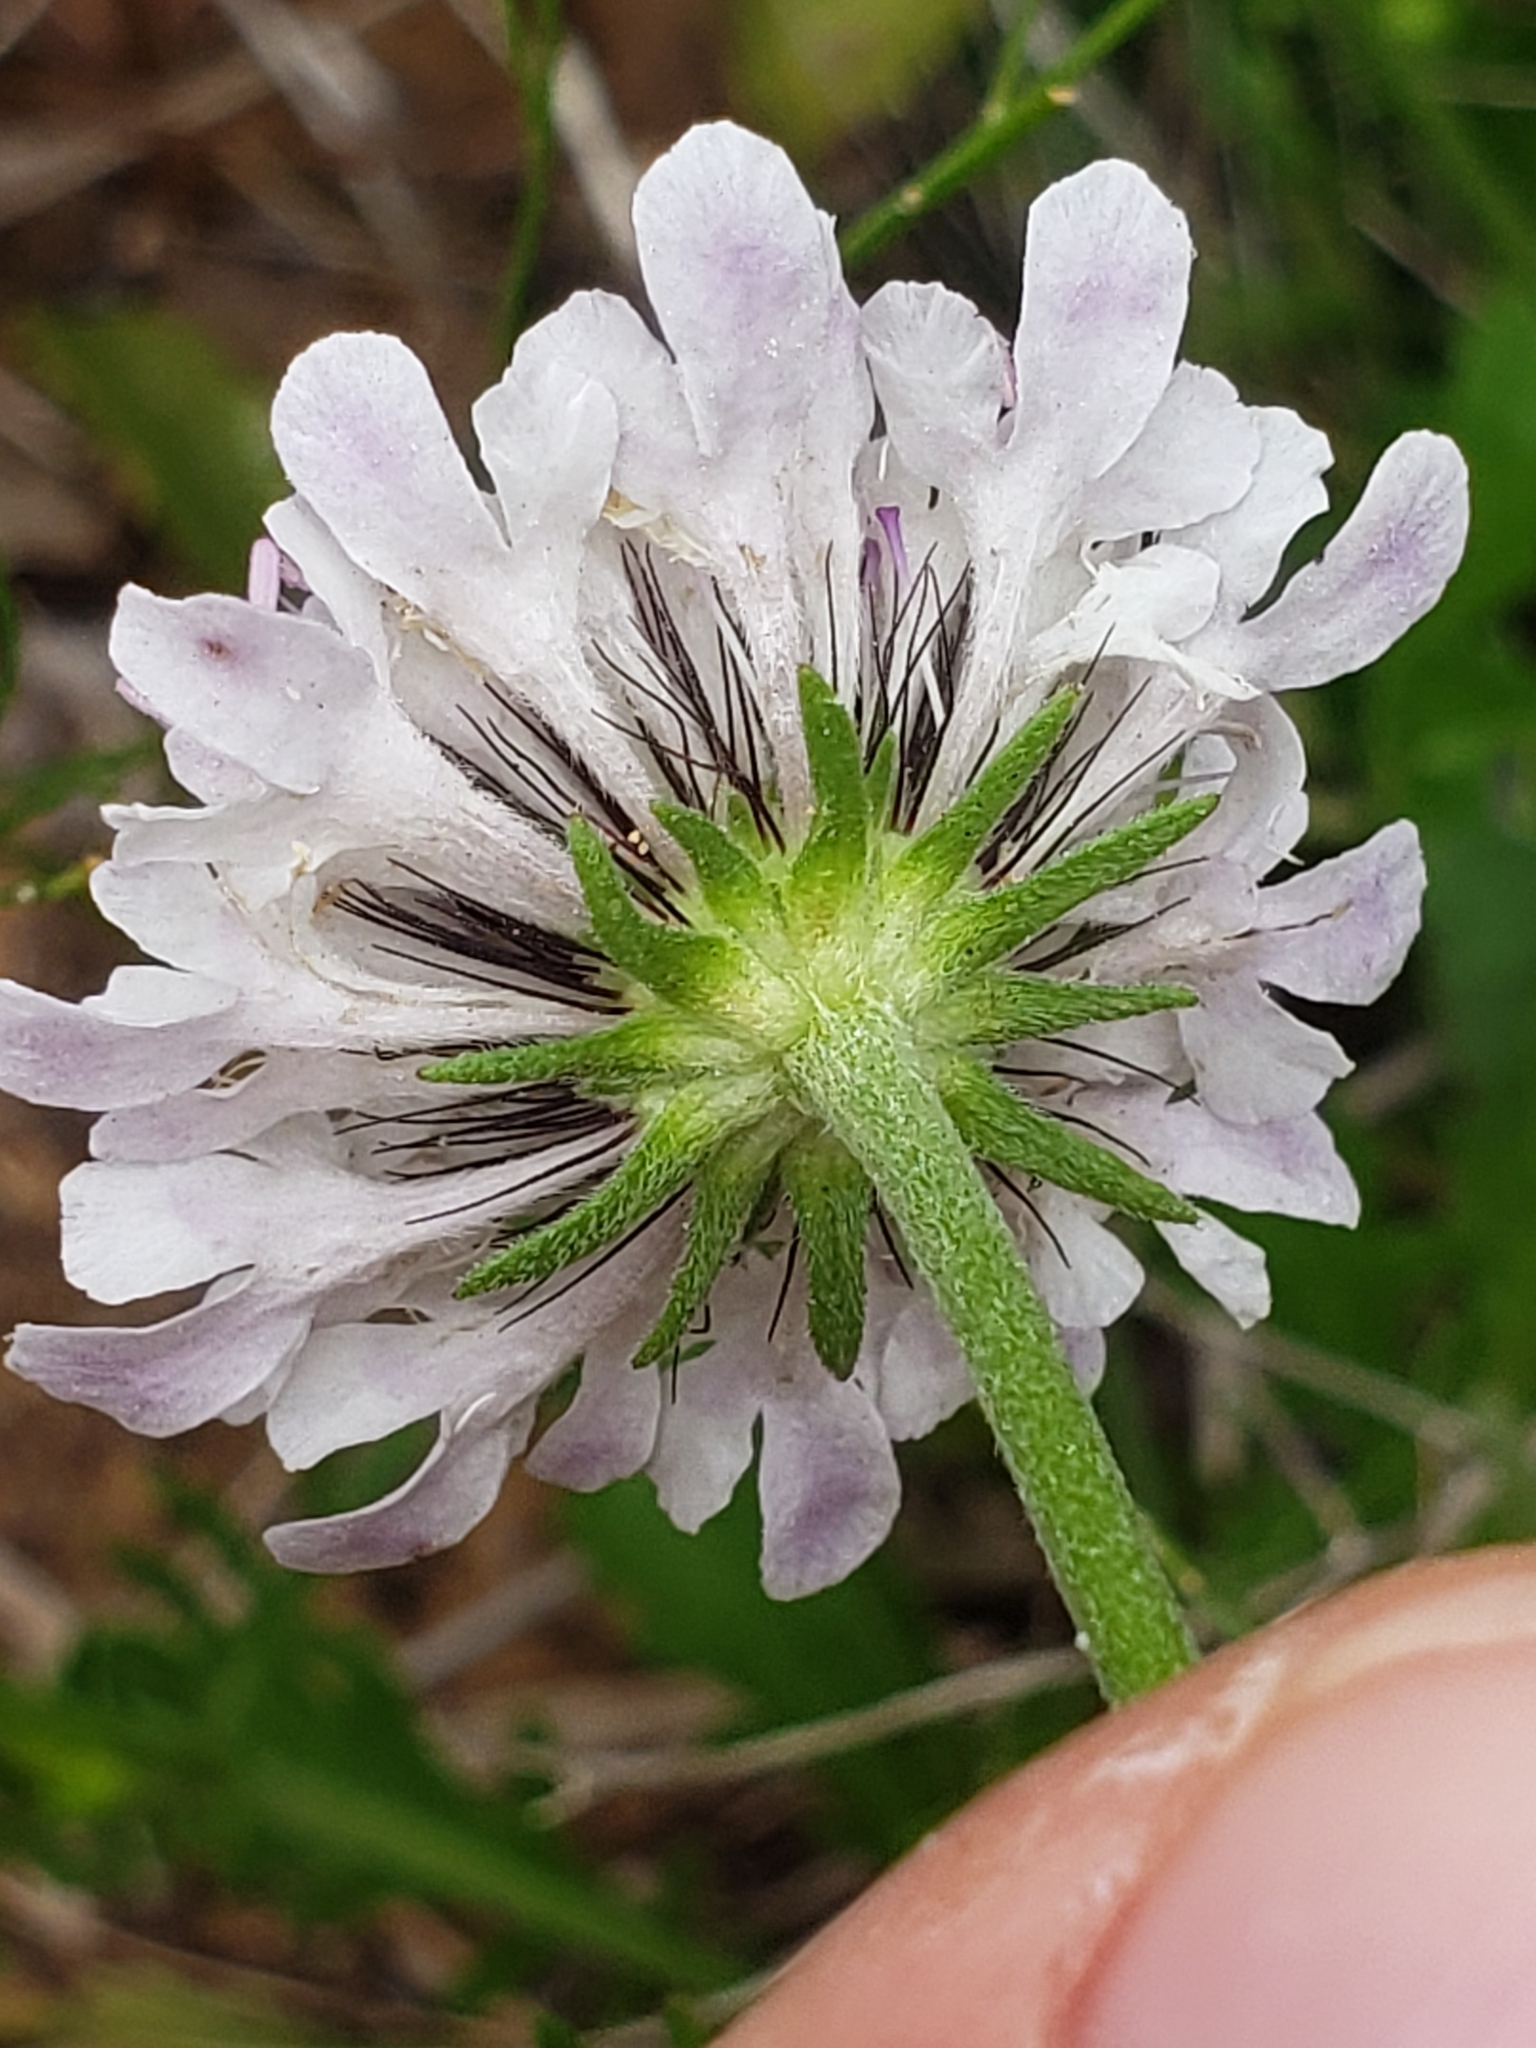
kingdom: Plantae
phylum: Tracheophyta
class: Magnoliopsida
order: Dipsacales
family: Caprifoliaceae
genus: Scabiosa
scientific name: Scabiosa columbaria
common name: Small scabious
